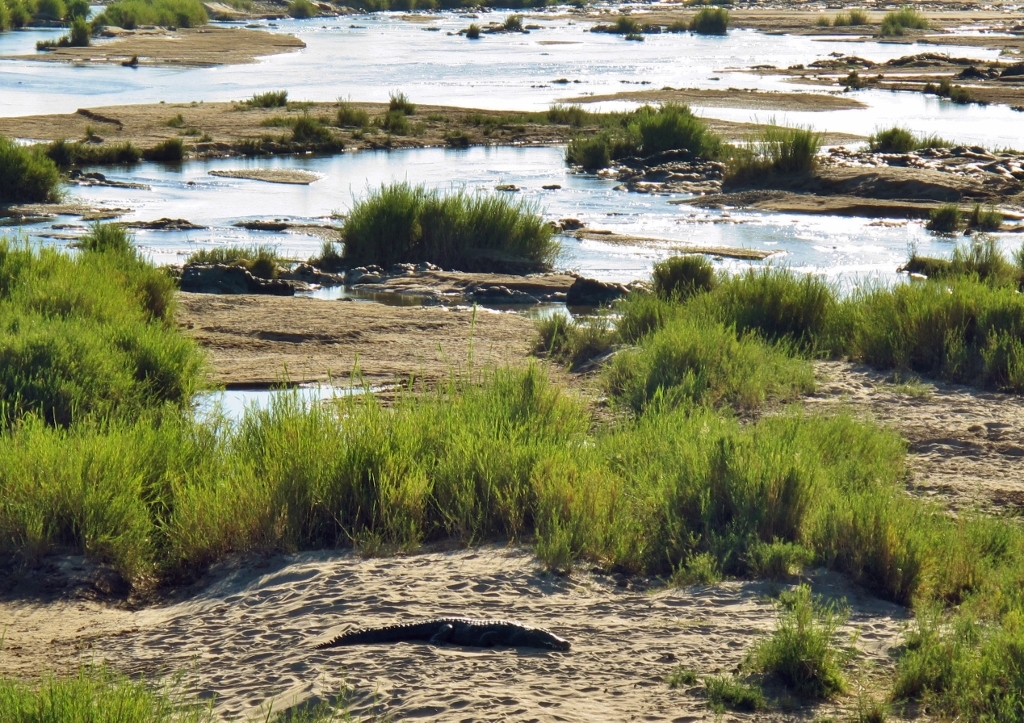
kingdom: Animalia
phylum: Chordata
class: Crocodylia
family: Crocodylidae
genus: Crocodylus
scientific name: Crocodylus niloticus
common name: Nile crocodile
